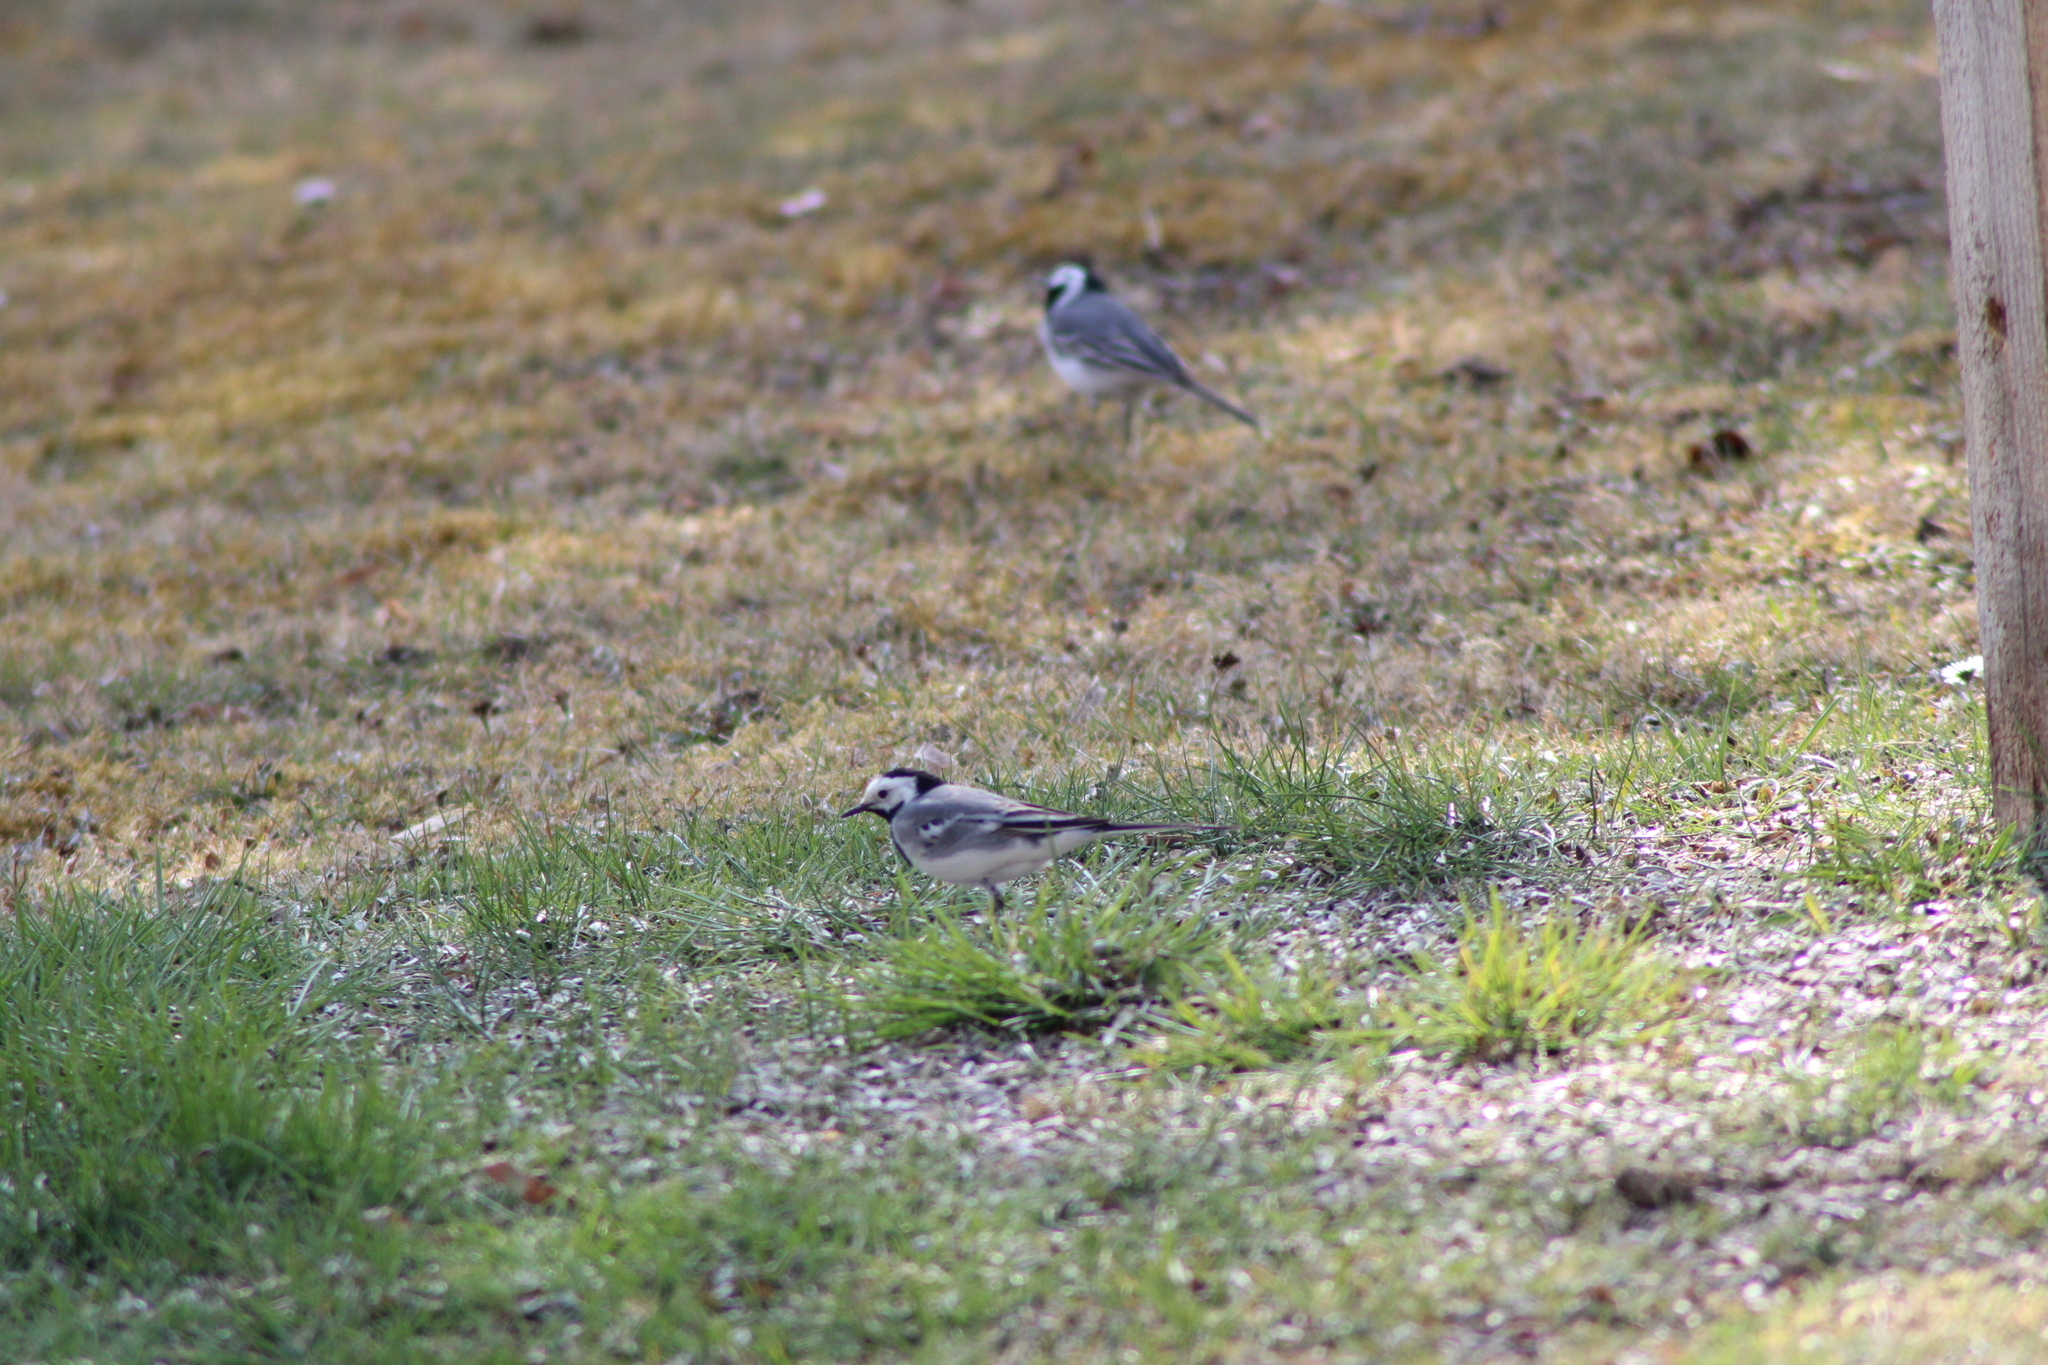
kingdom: Animalia
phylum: Chordata
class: Aves
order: Passeriformes
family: Motacillidae
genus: Motacilla
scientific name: Motacilla alba
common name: White wagtail
